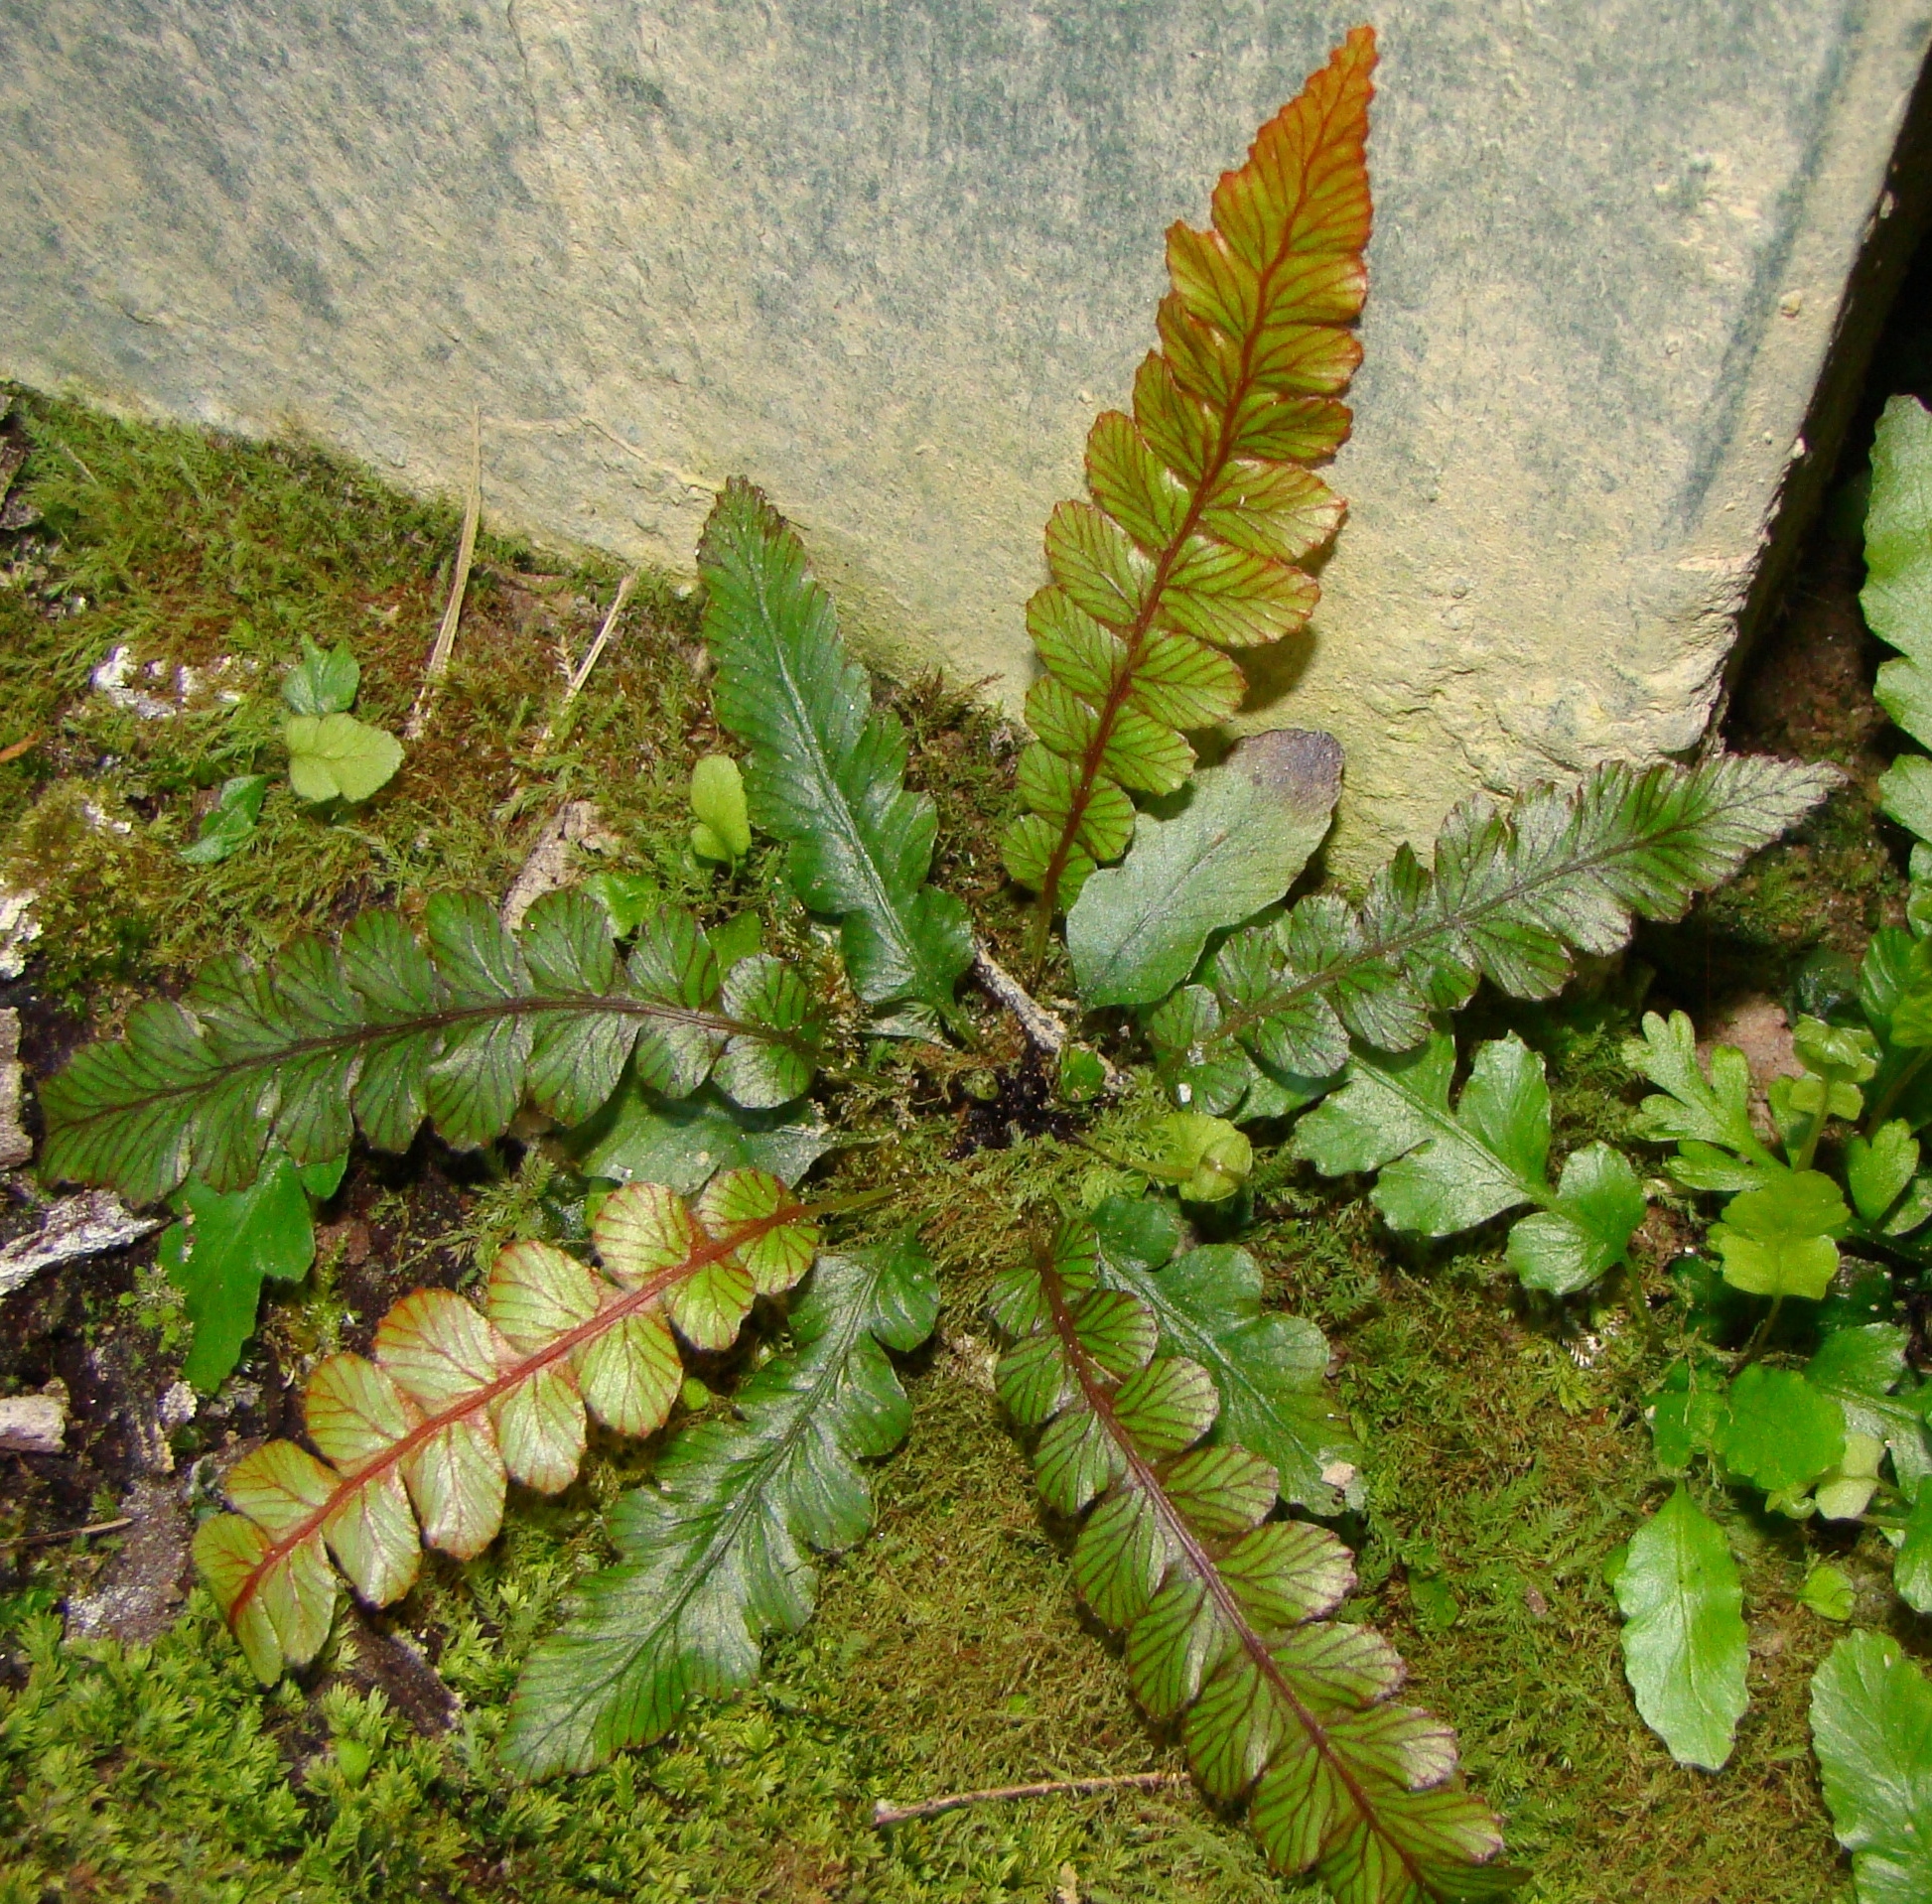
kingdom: Plantae
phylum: Tracheophyta
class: Polypodiopsida
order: Polypodiales
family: Blechnaceae
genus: Austroblechnum
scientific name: Austroblechnum membranaceum
